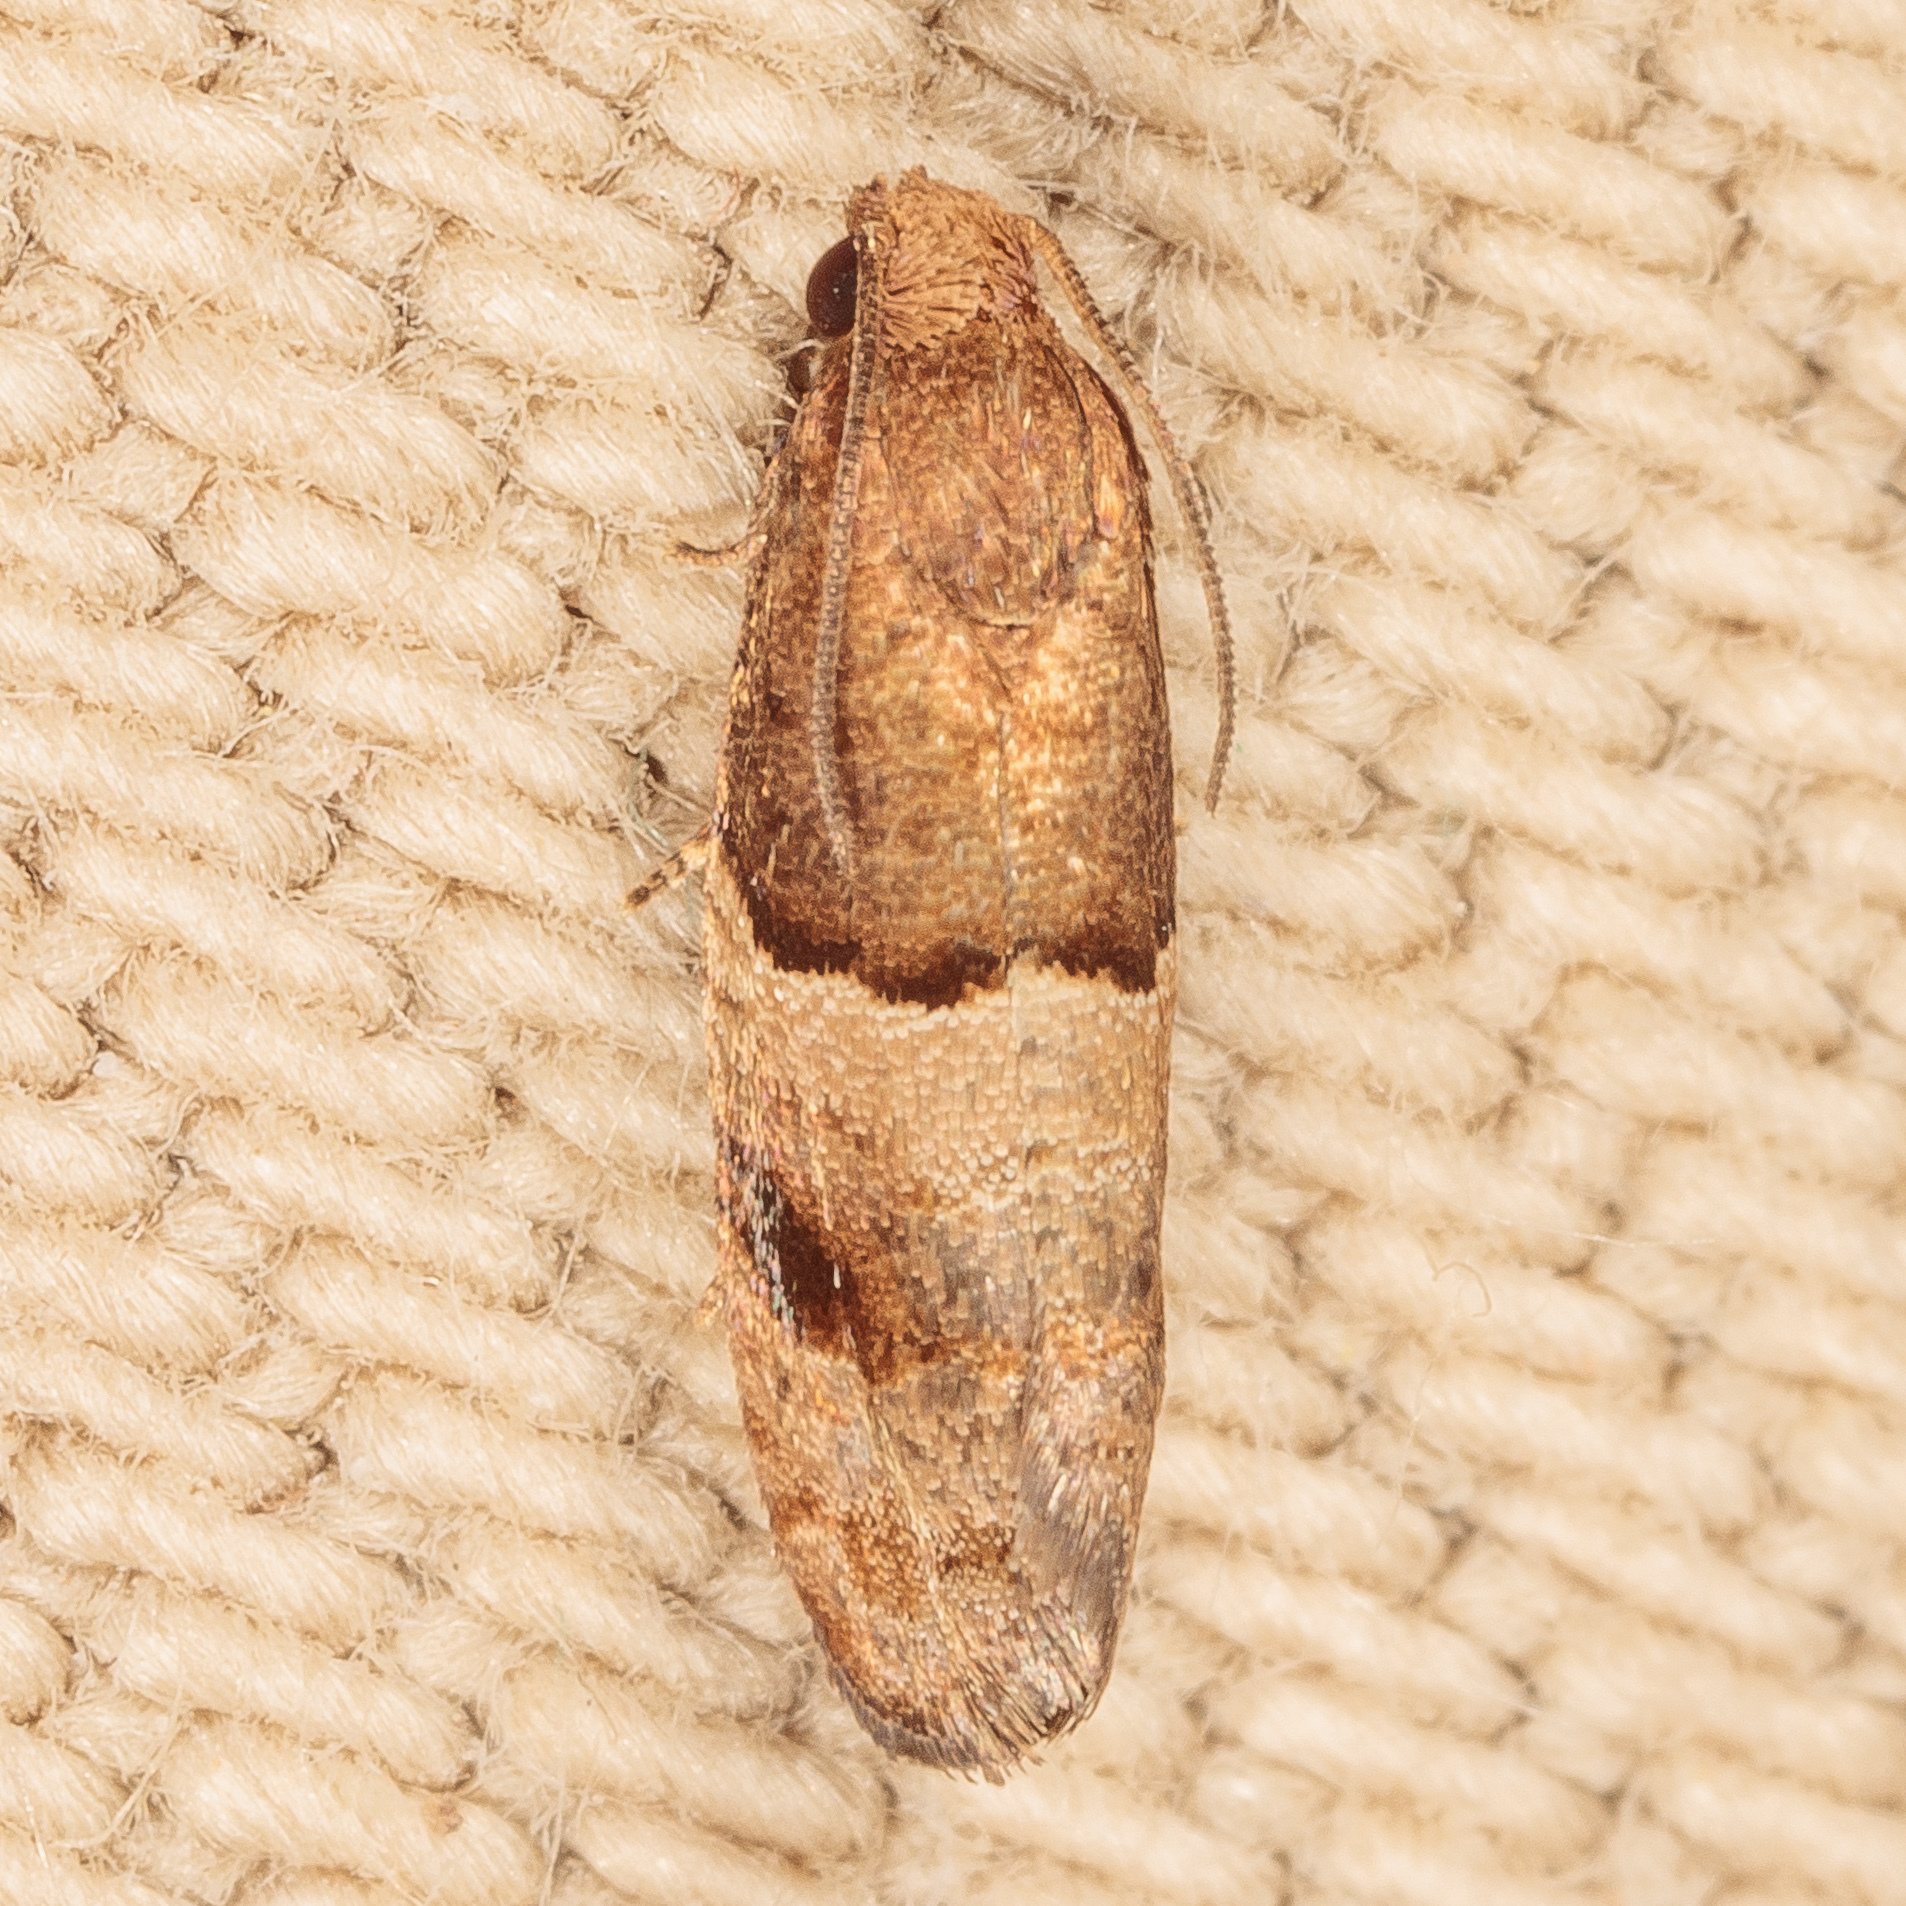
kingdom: Animalia
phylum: Arthropoda
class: Insecta
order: Lepidoptera
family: Tortricidae
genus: Larisa
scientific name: Larisa subsolana
